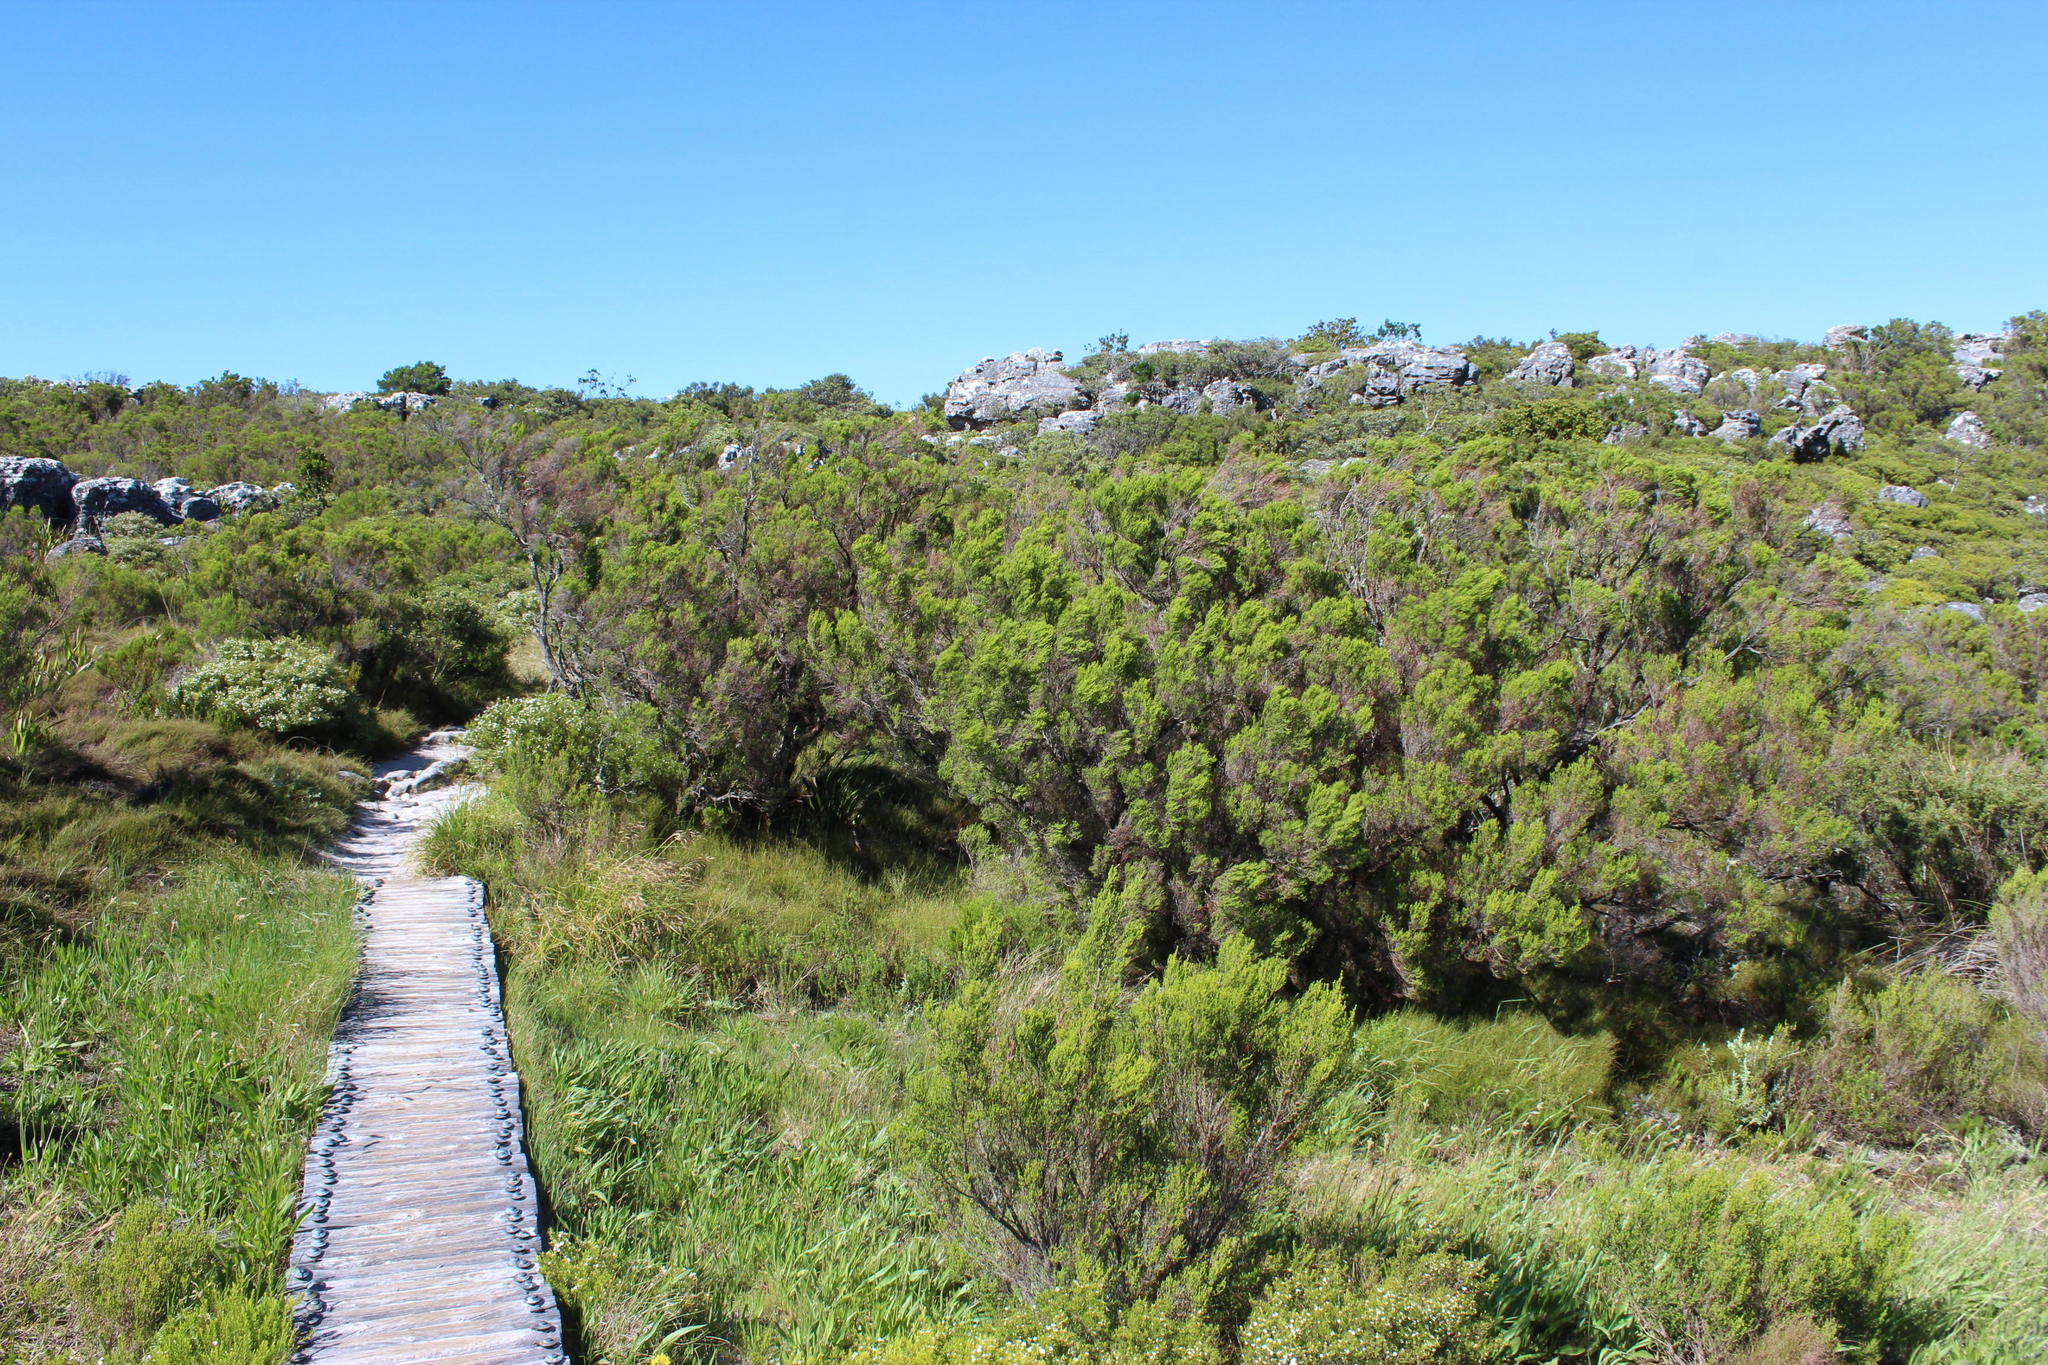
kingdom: Plantae
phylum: Tracheophyta
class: Magnoliopsida
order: Ericales
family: Ericaceae
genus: Erica
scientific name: Erica tristis
